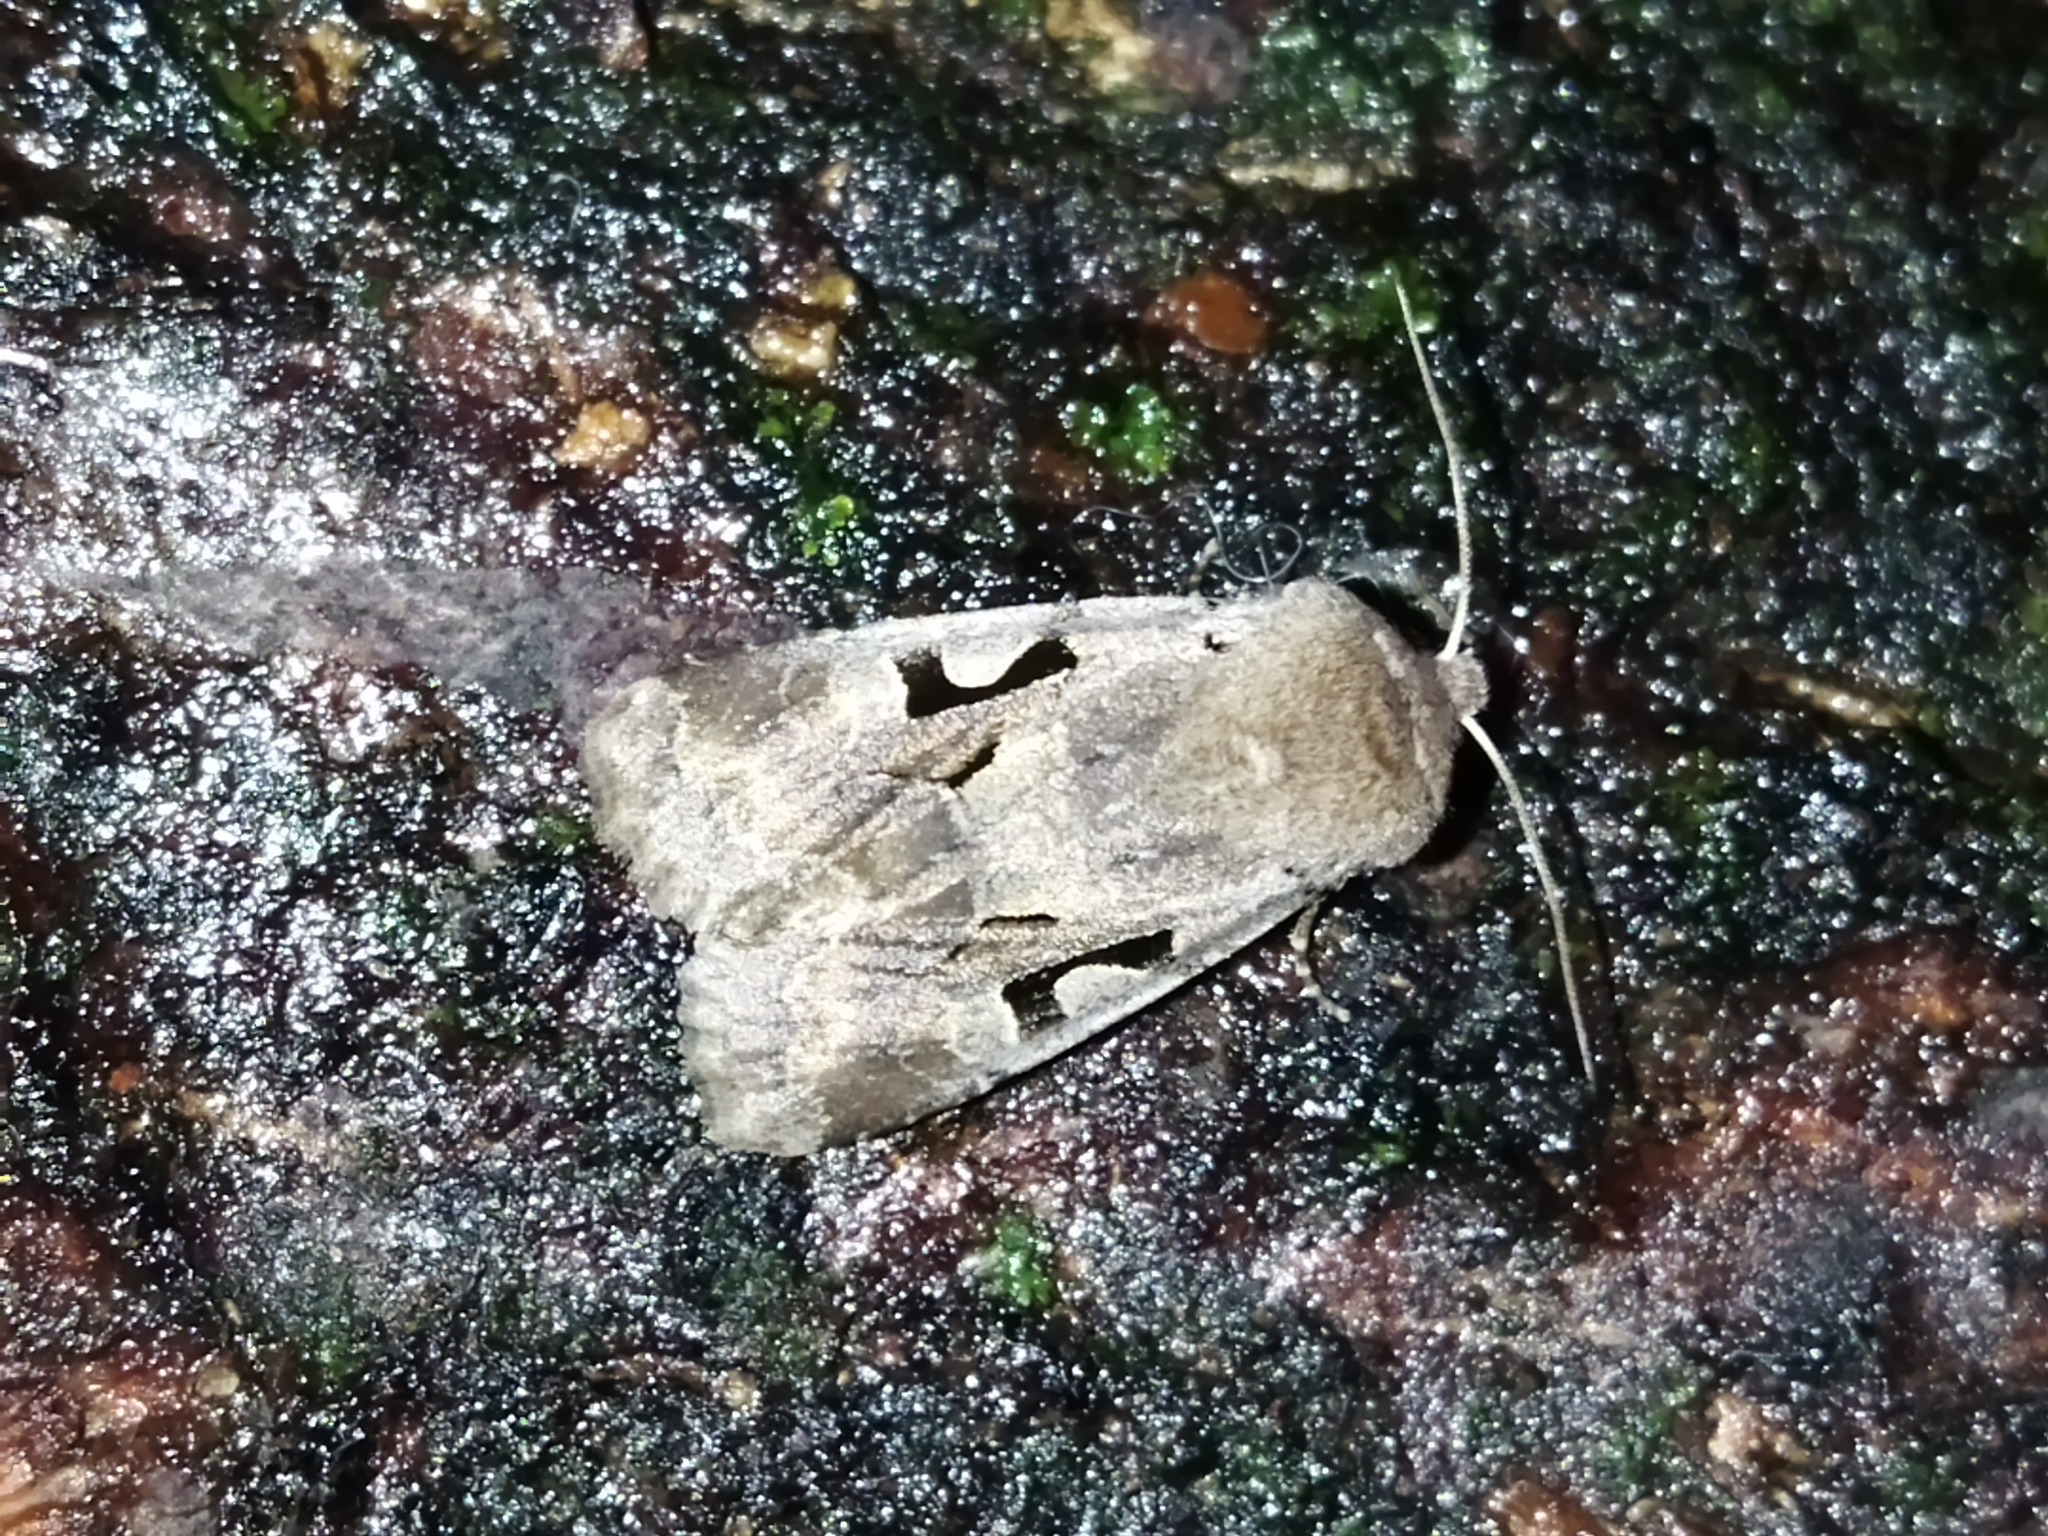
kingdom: Animalia
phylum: Arthropoda
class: Insecta
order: Lepidoptera
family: Noctuidae
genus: Orthosia
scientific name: Orthosia gothica
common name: Hebrew character
